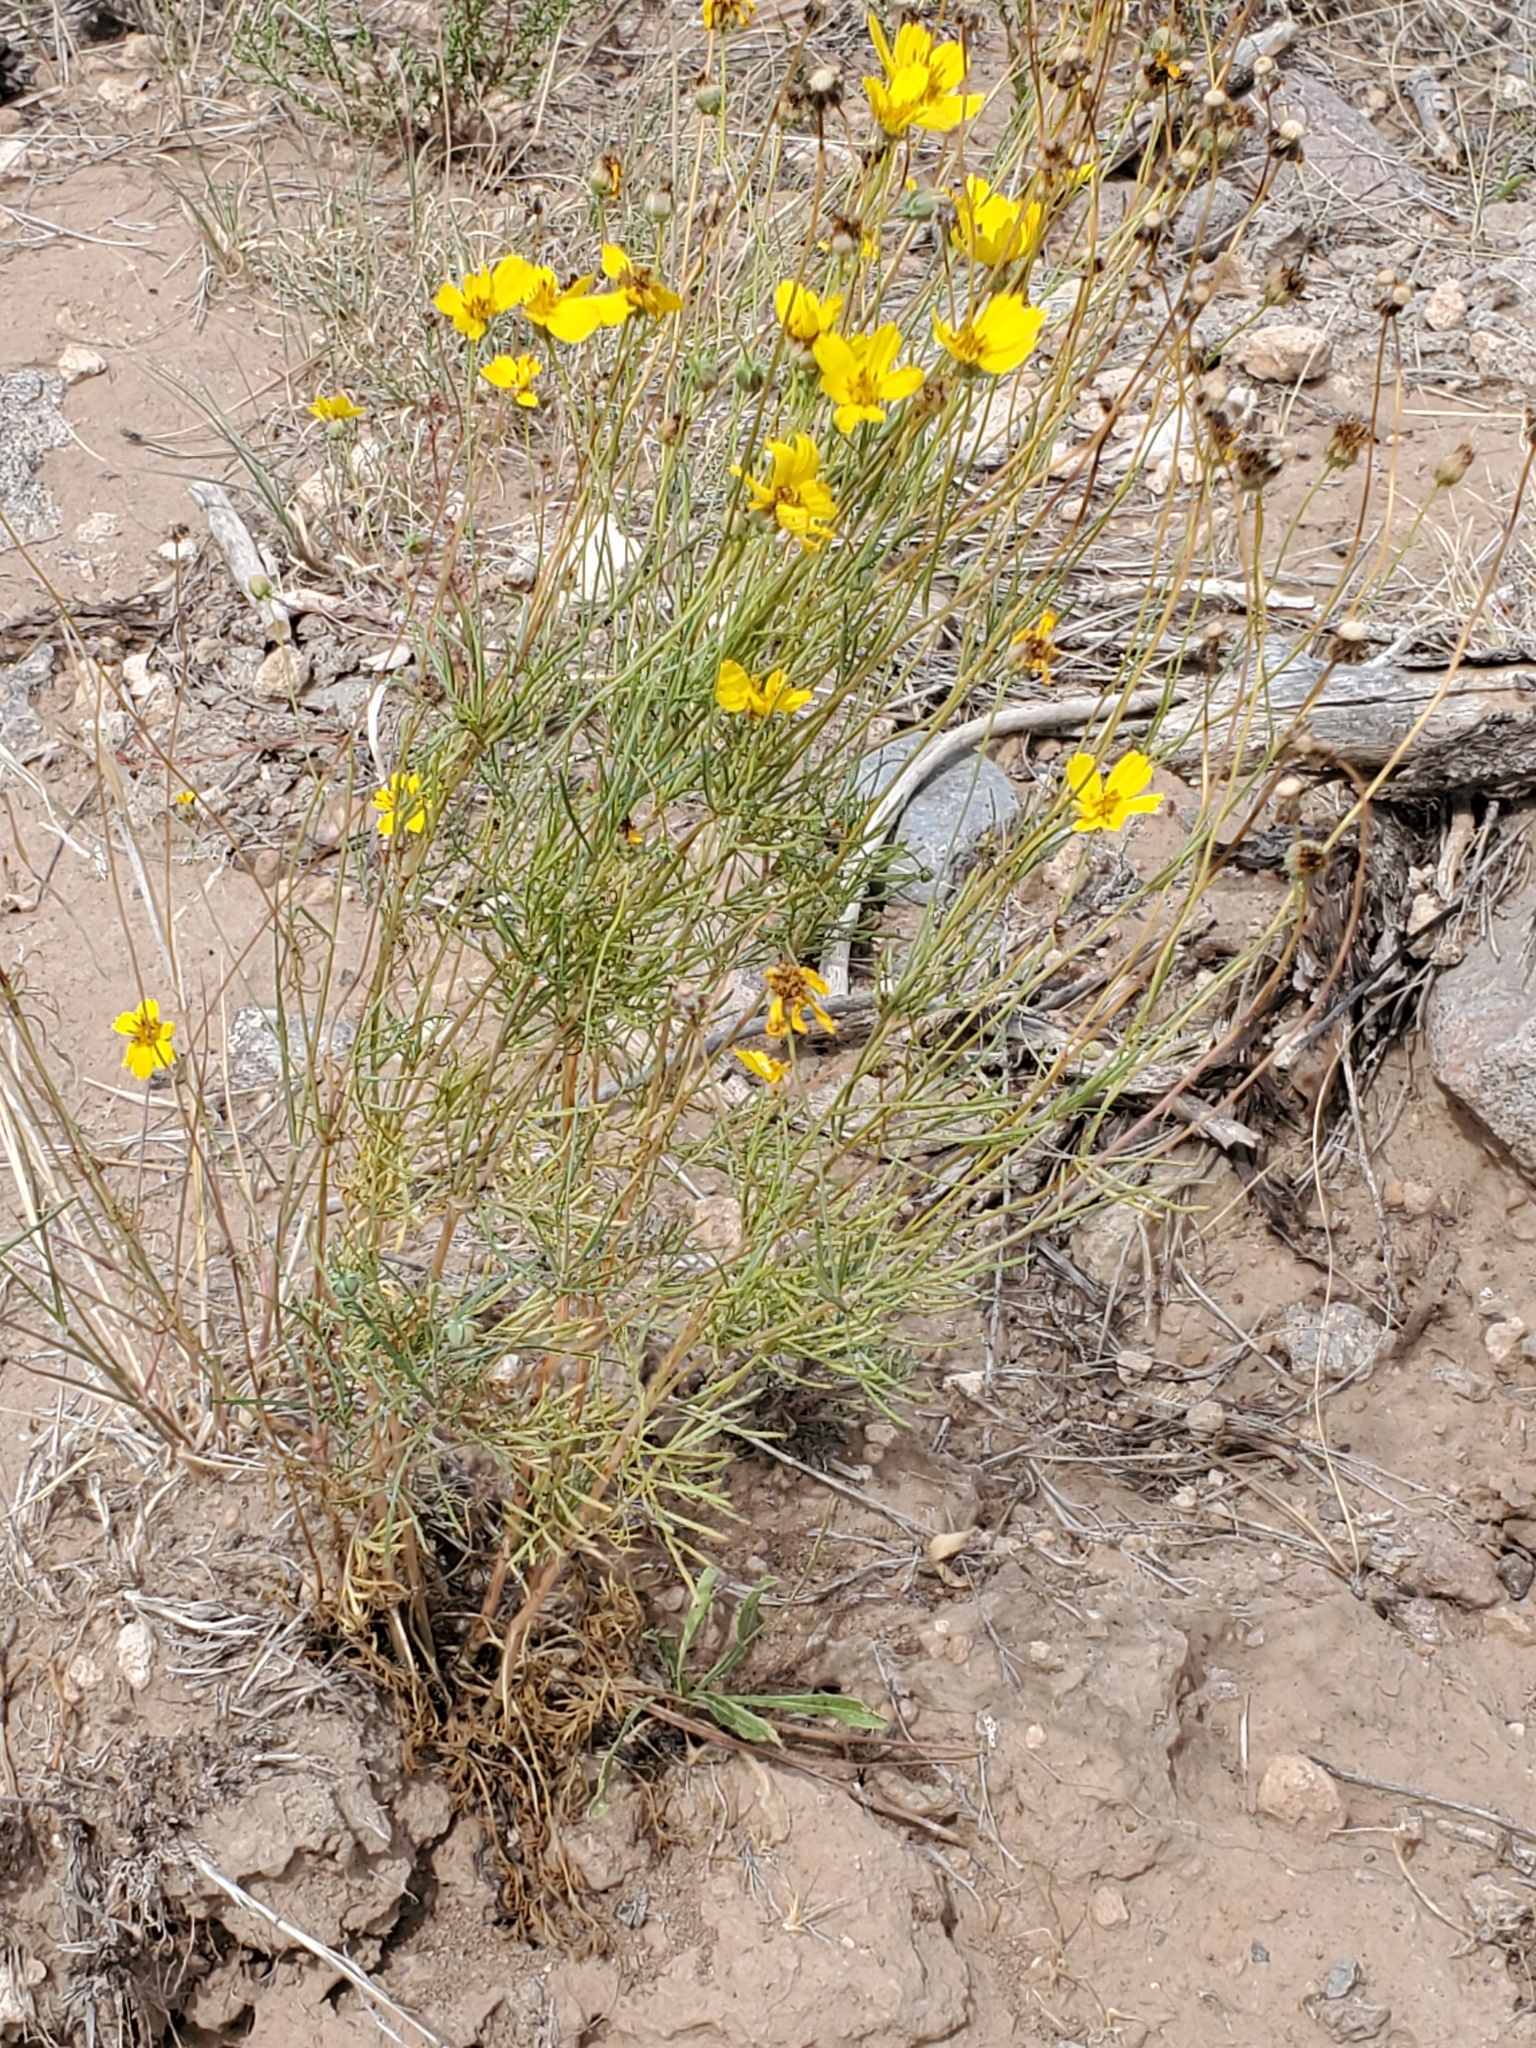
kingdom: Plantae
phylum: Tracheophyta
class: Magnoliopsida
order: Asterales
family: Asteraceae
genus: Thelesperma
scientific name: Thelesperma filifolium
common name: Stiff greenthread
